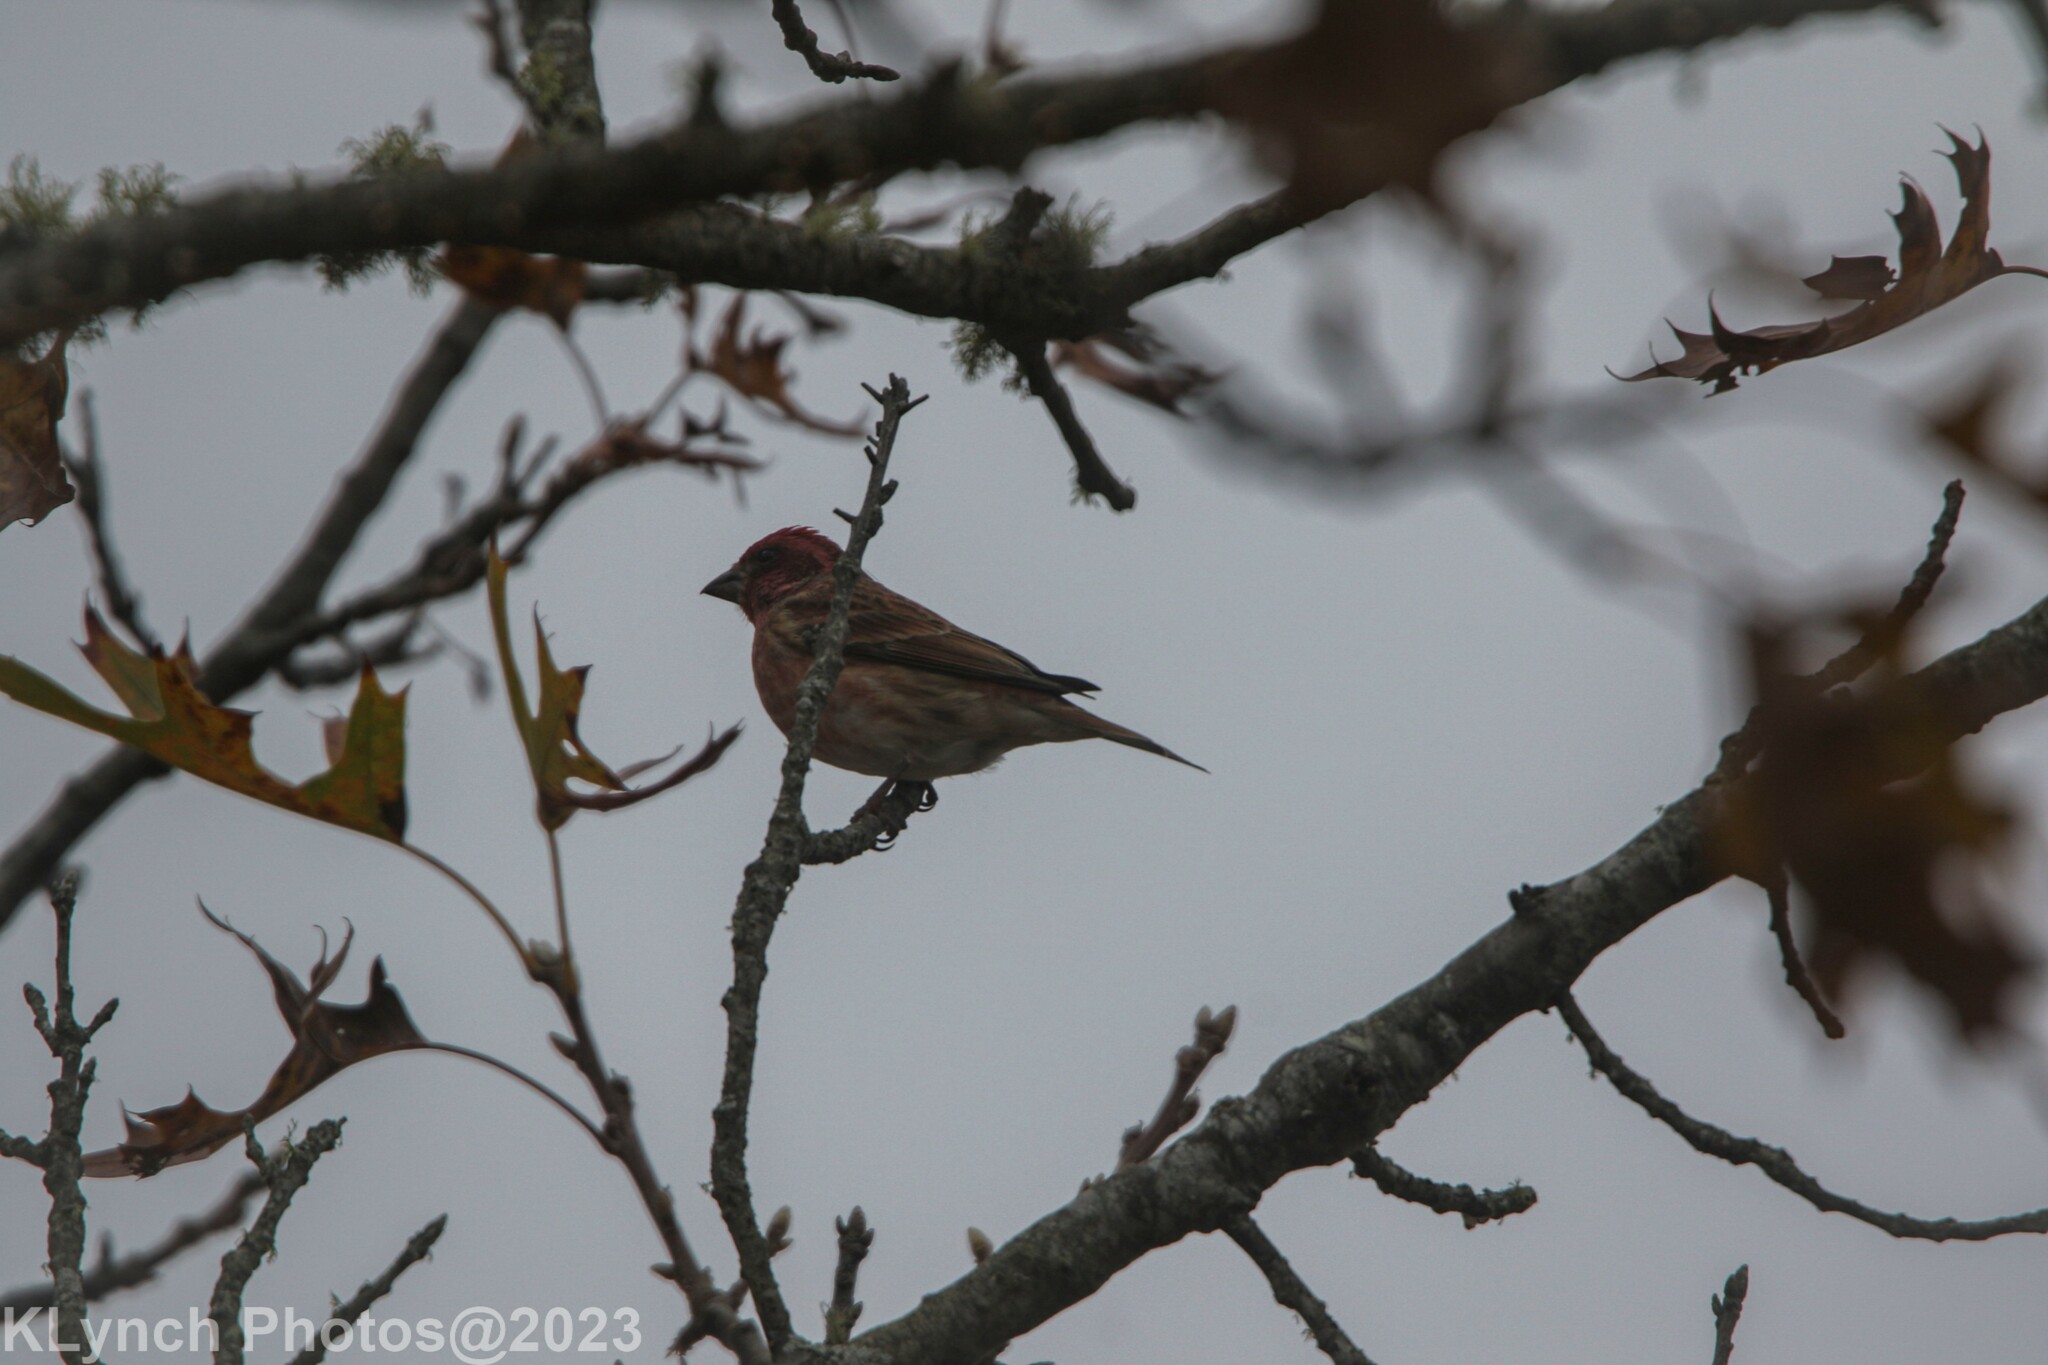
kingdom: Animalia
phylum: Chordata
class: Aves
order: Passeriformes
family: Fringillidae
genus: Haemorhous
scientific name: Haemorhous purpureus
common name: Purple finch
